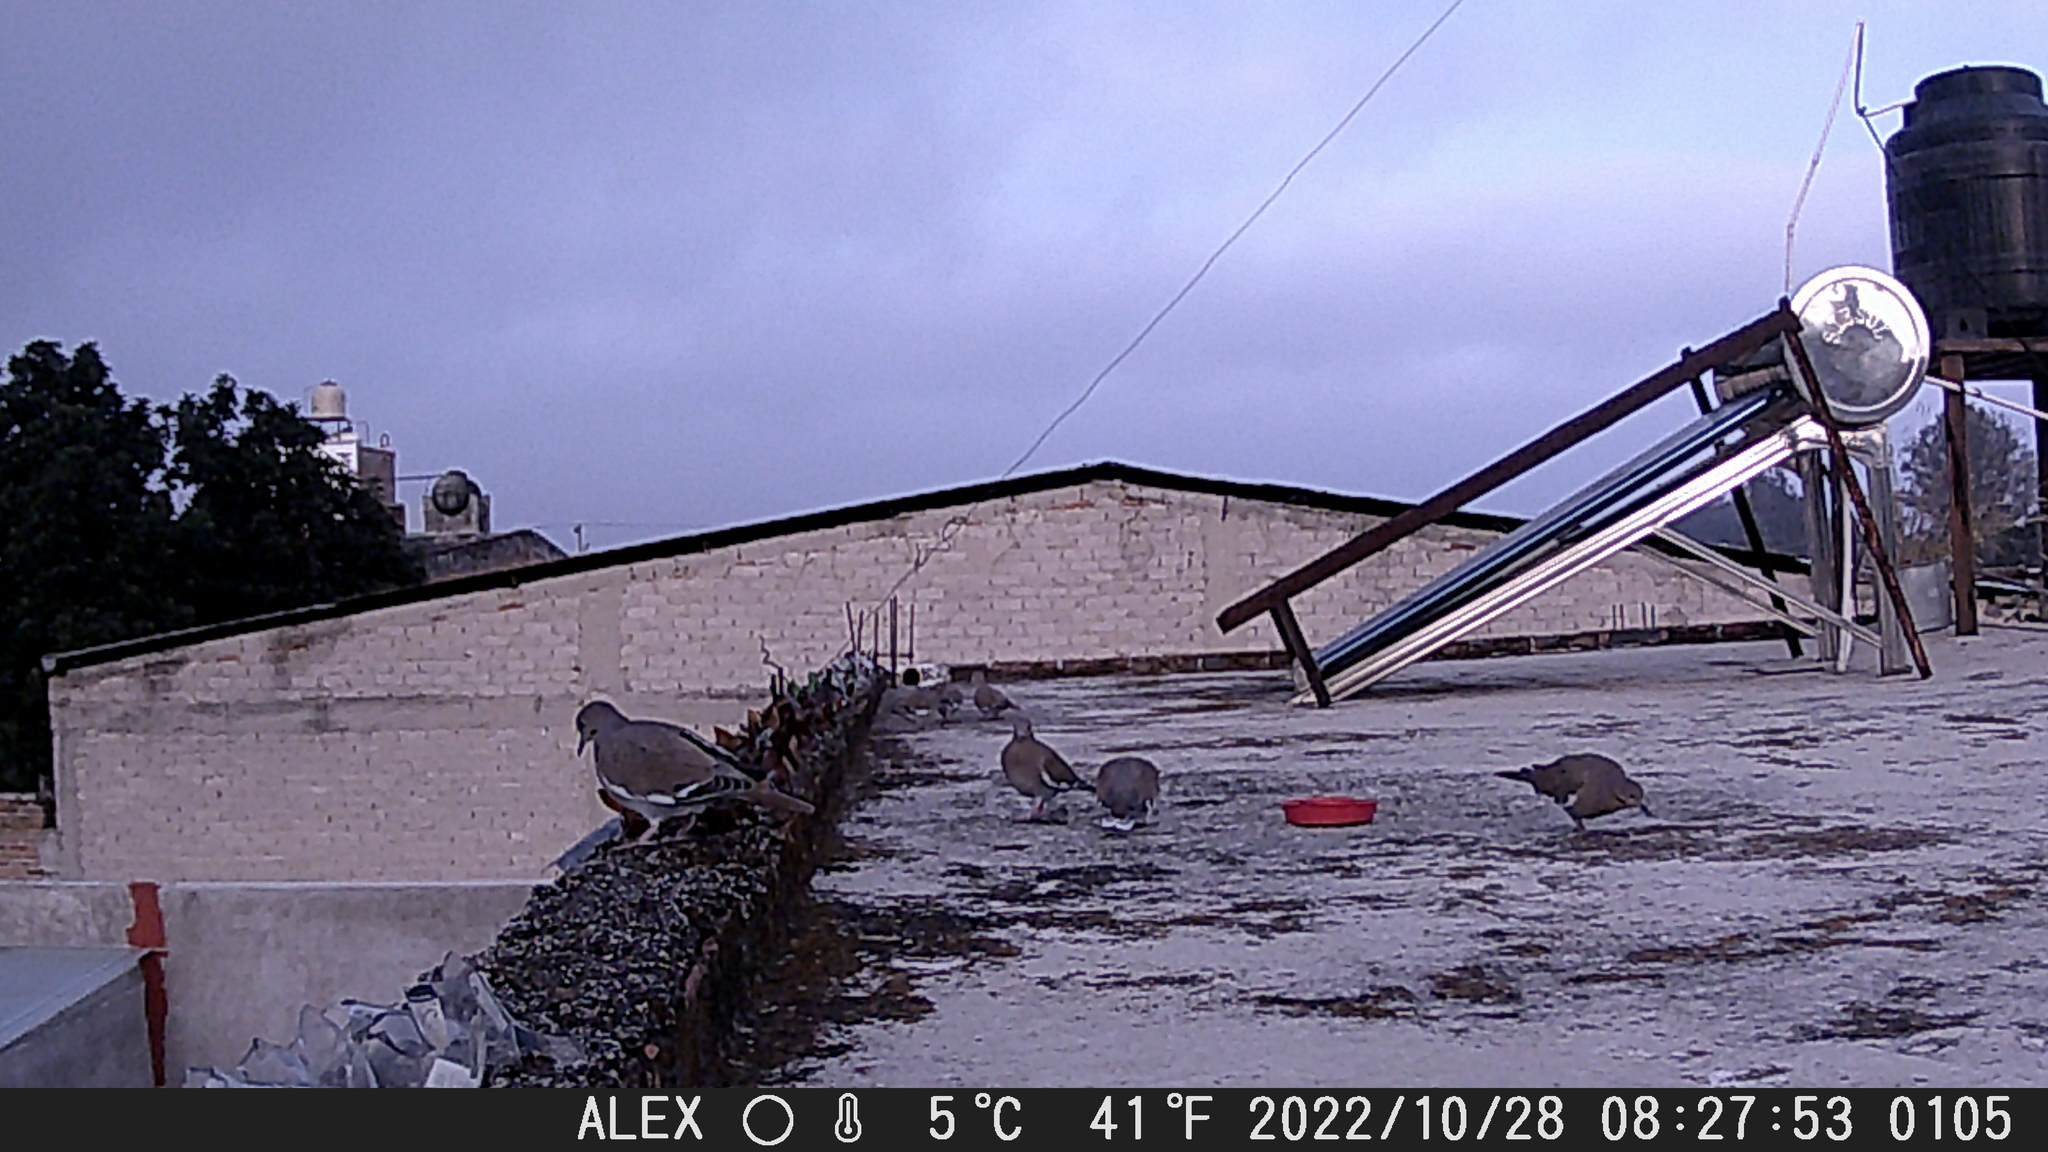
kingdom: Animalia
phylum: Chordata
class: Aves
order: Columbiformes
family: Columbidae
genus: Zenaida
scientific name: Zenaida asiatica
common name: White-winged dove
